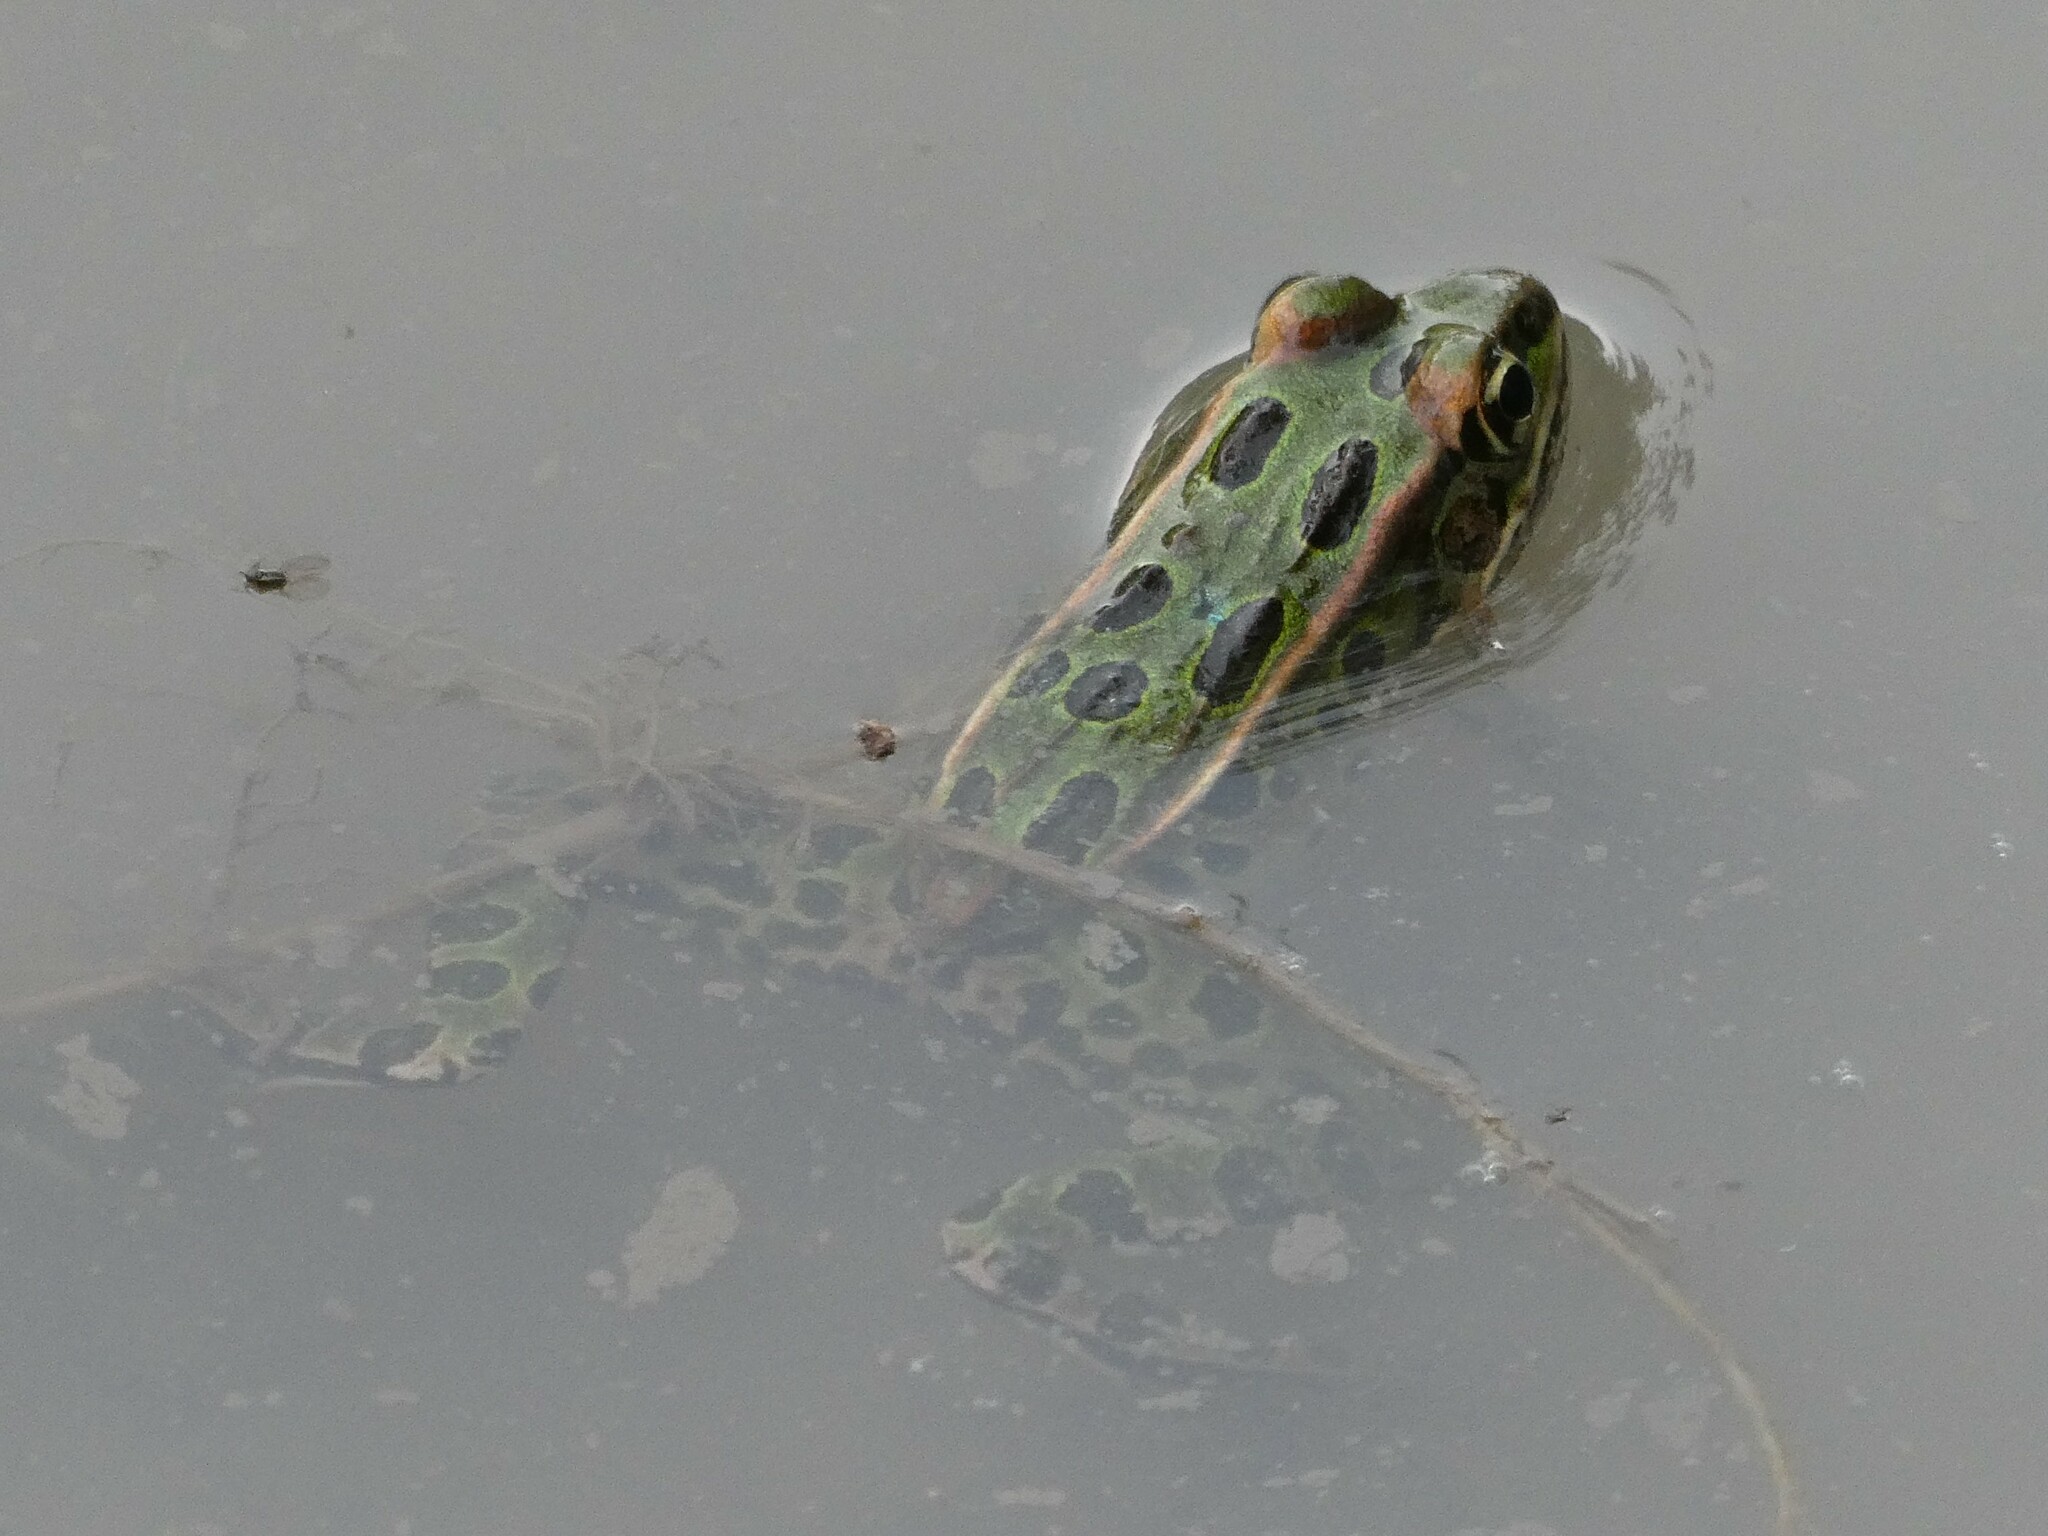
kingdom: Animalia
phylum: Chordata
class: Amphibia
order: Anura
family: Ranidae
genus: Lithobates
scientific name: Lithobates pipiens
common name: Northern leopard frog
